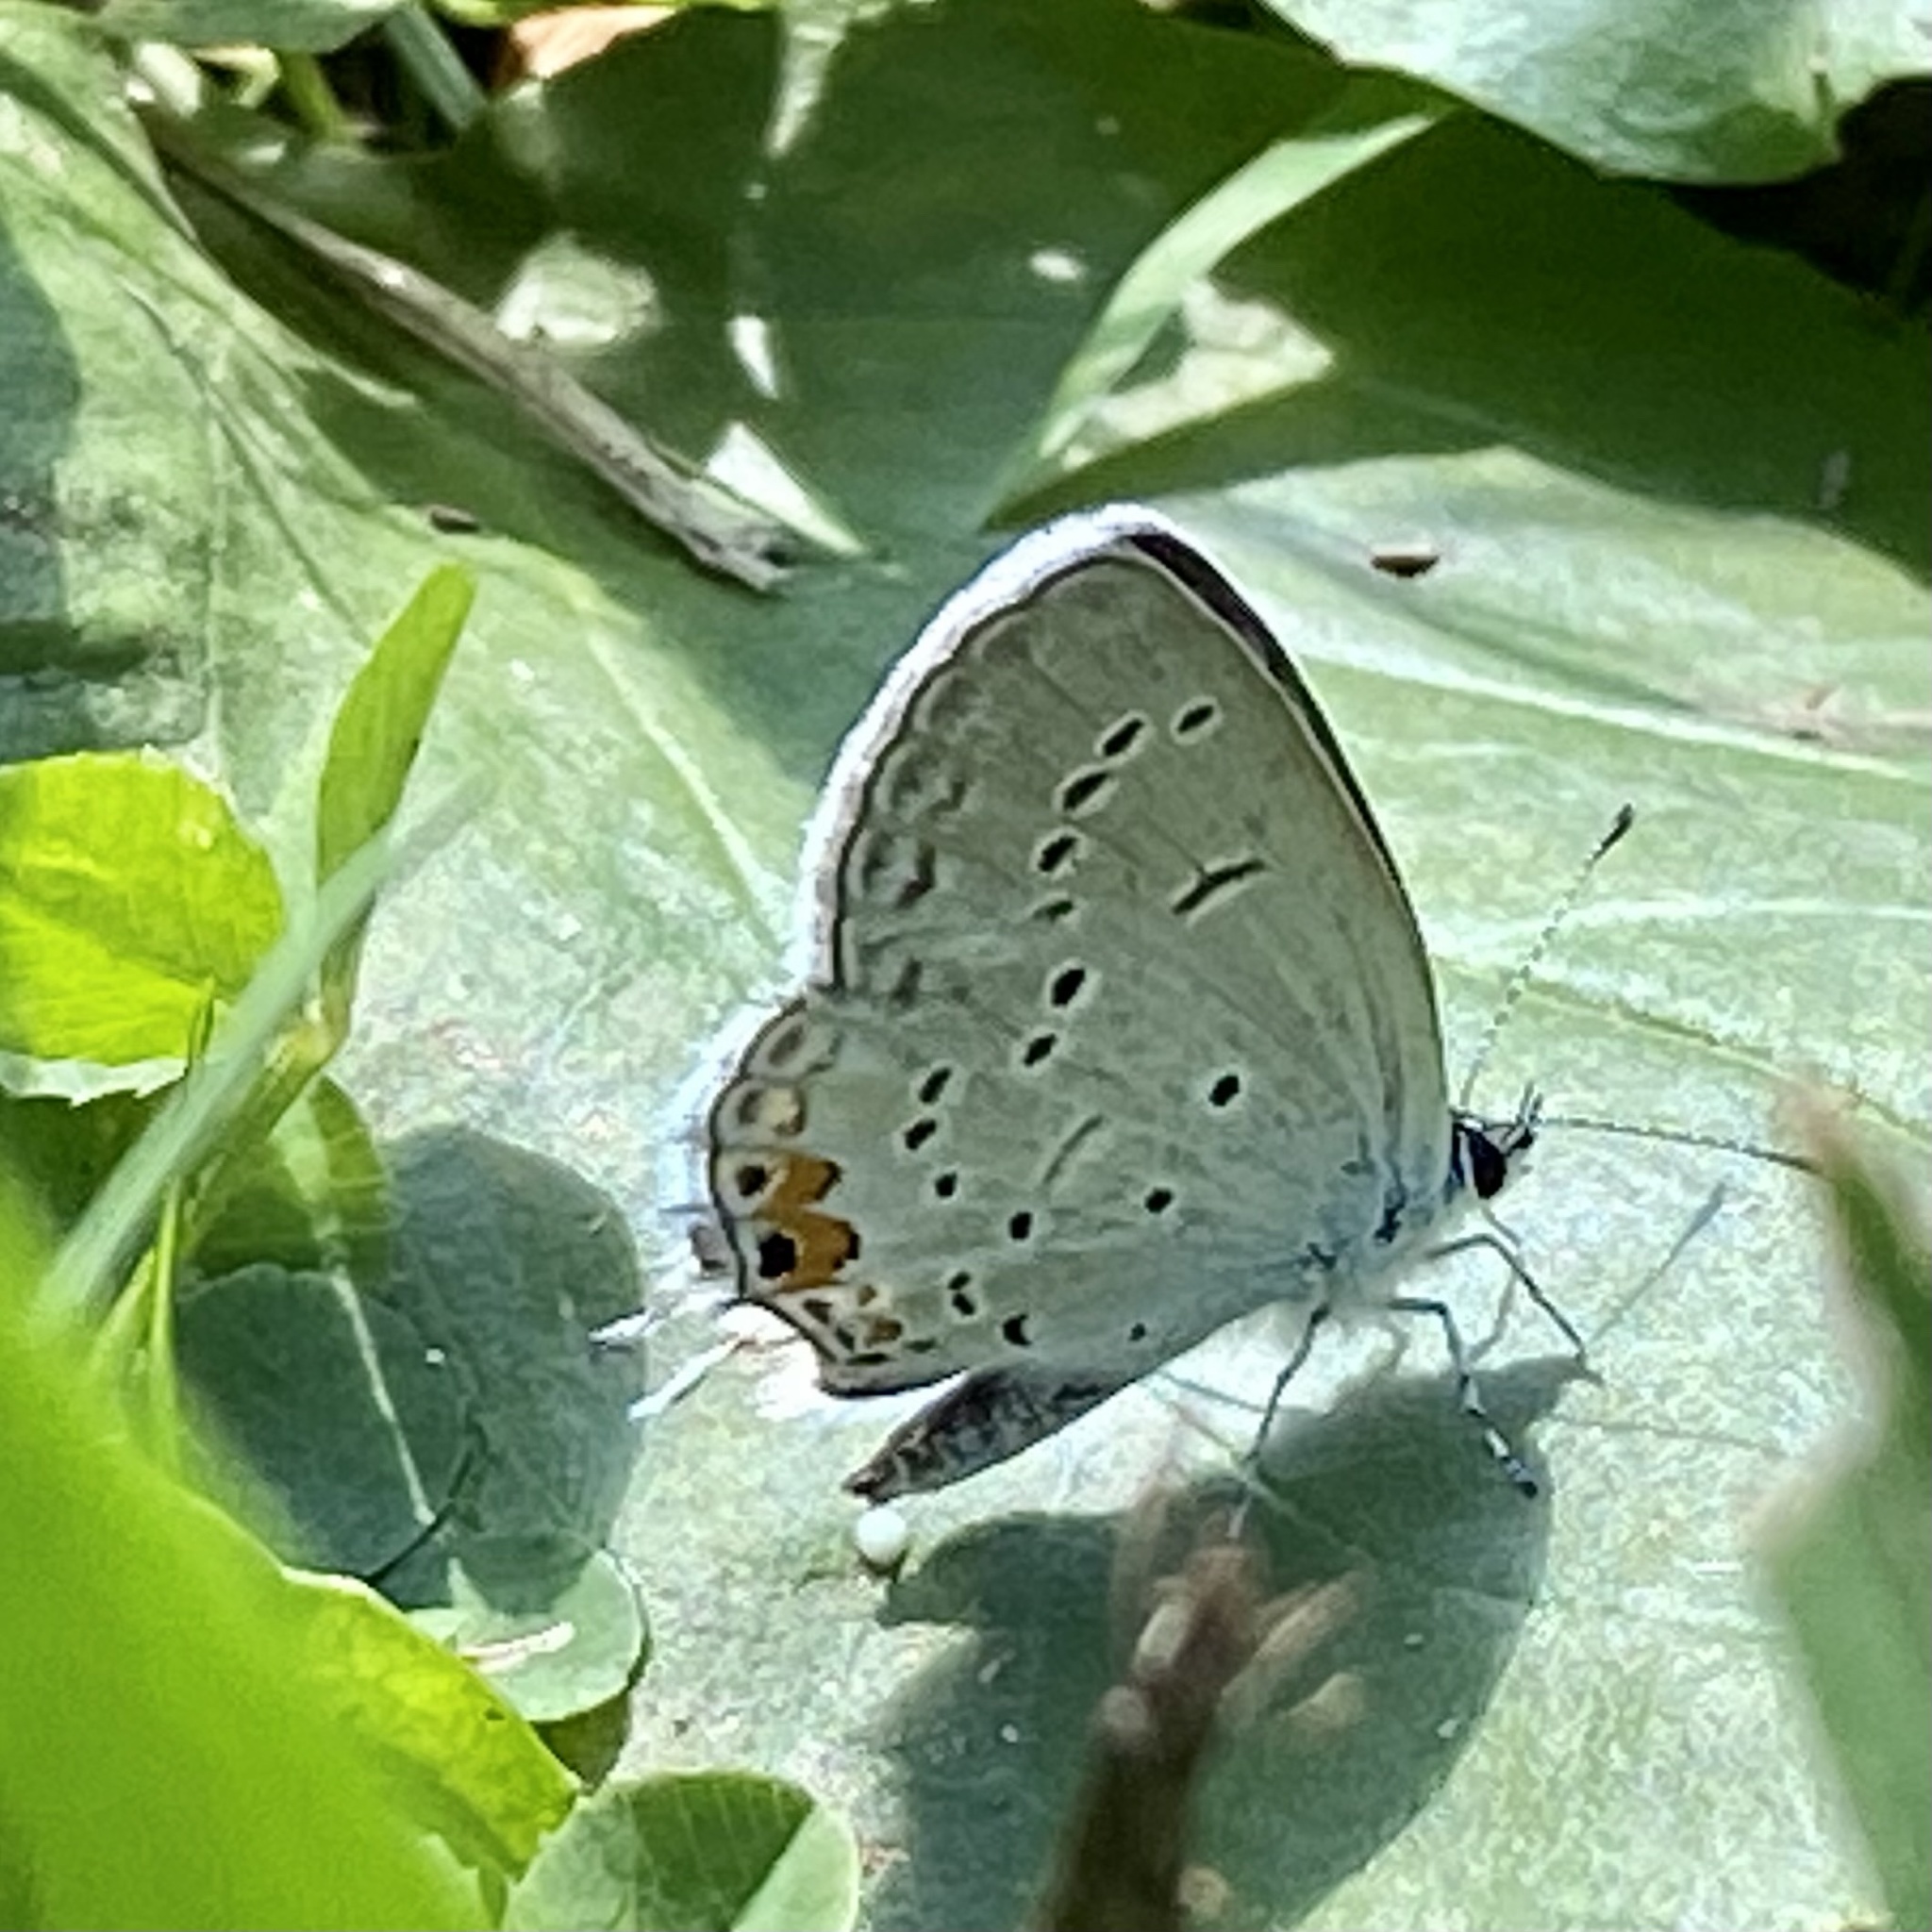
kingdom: Animalia
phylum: Arthropoda
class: Insecta
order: Lepidoptera
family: Lycaenidae
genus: Elkalyce
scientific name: Elkalyce comyntas
